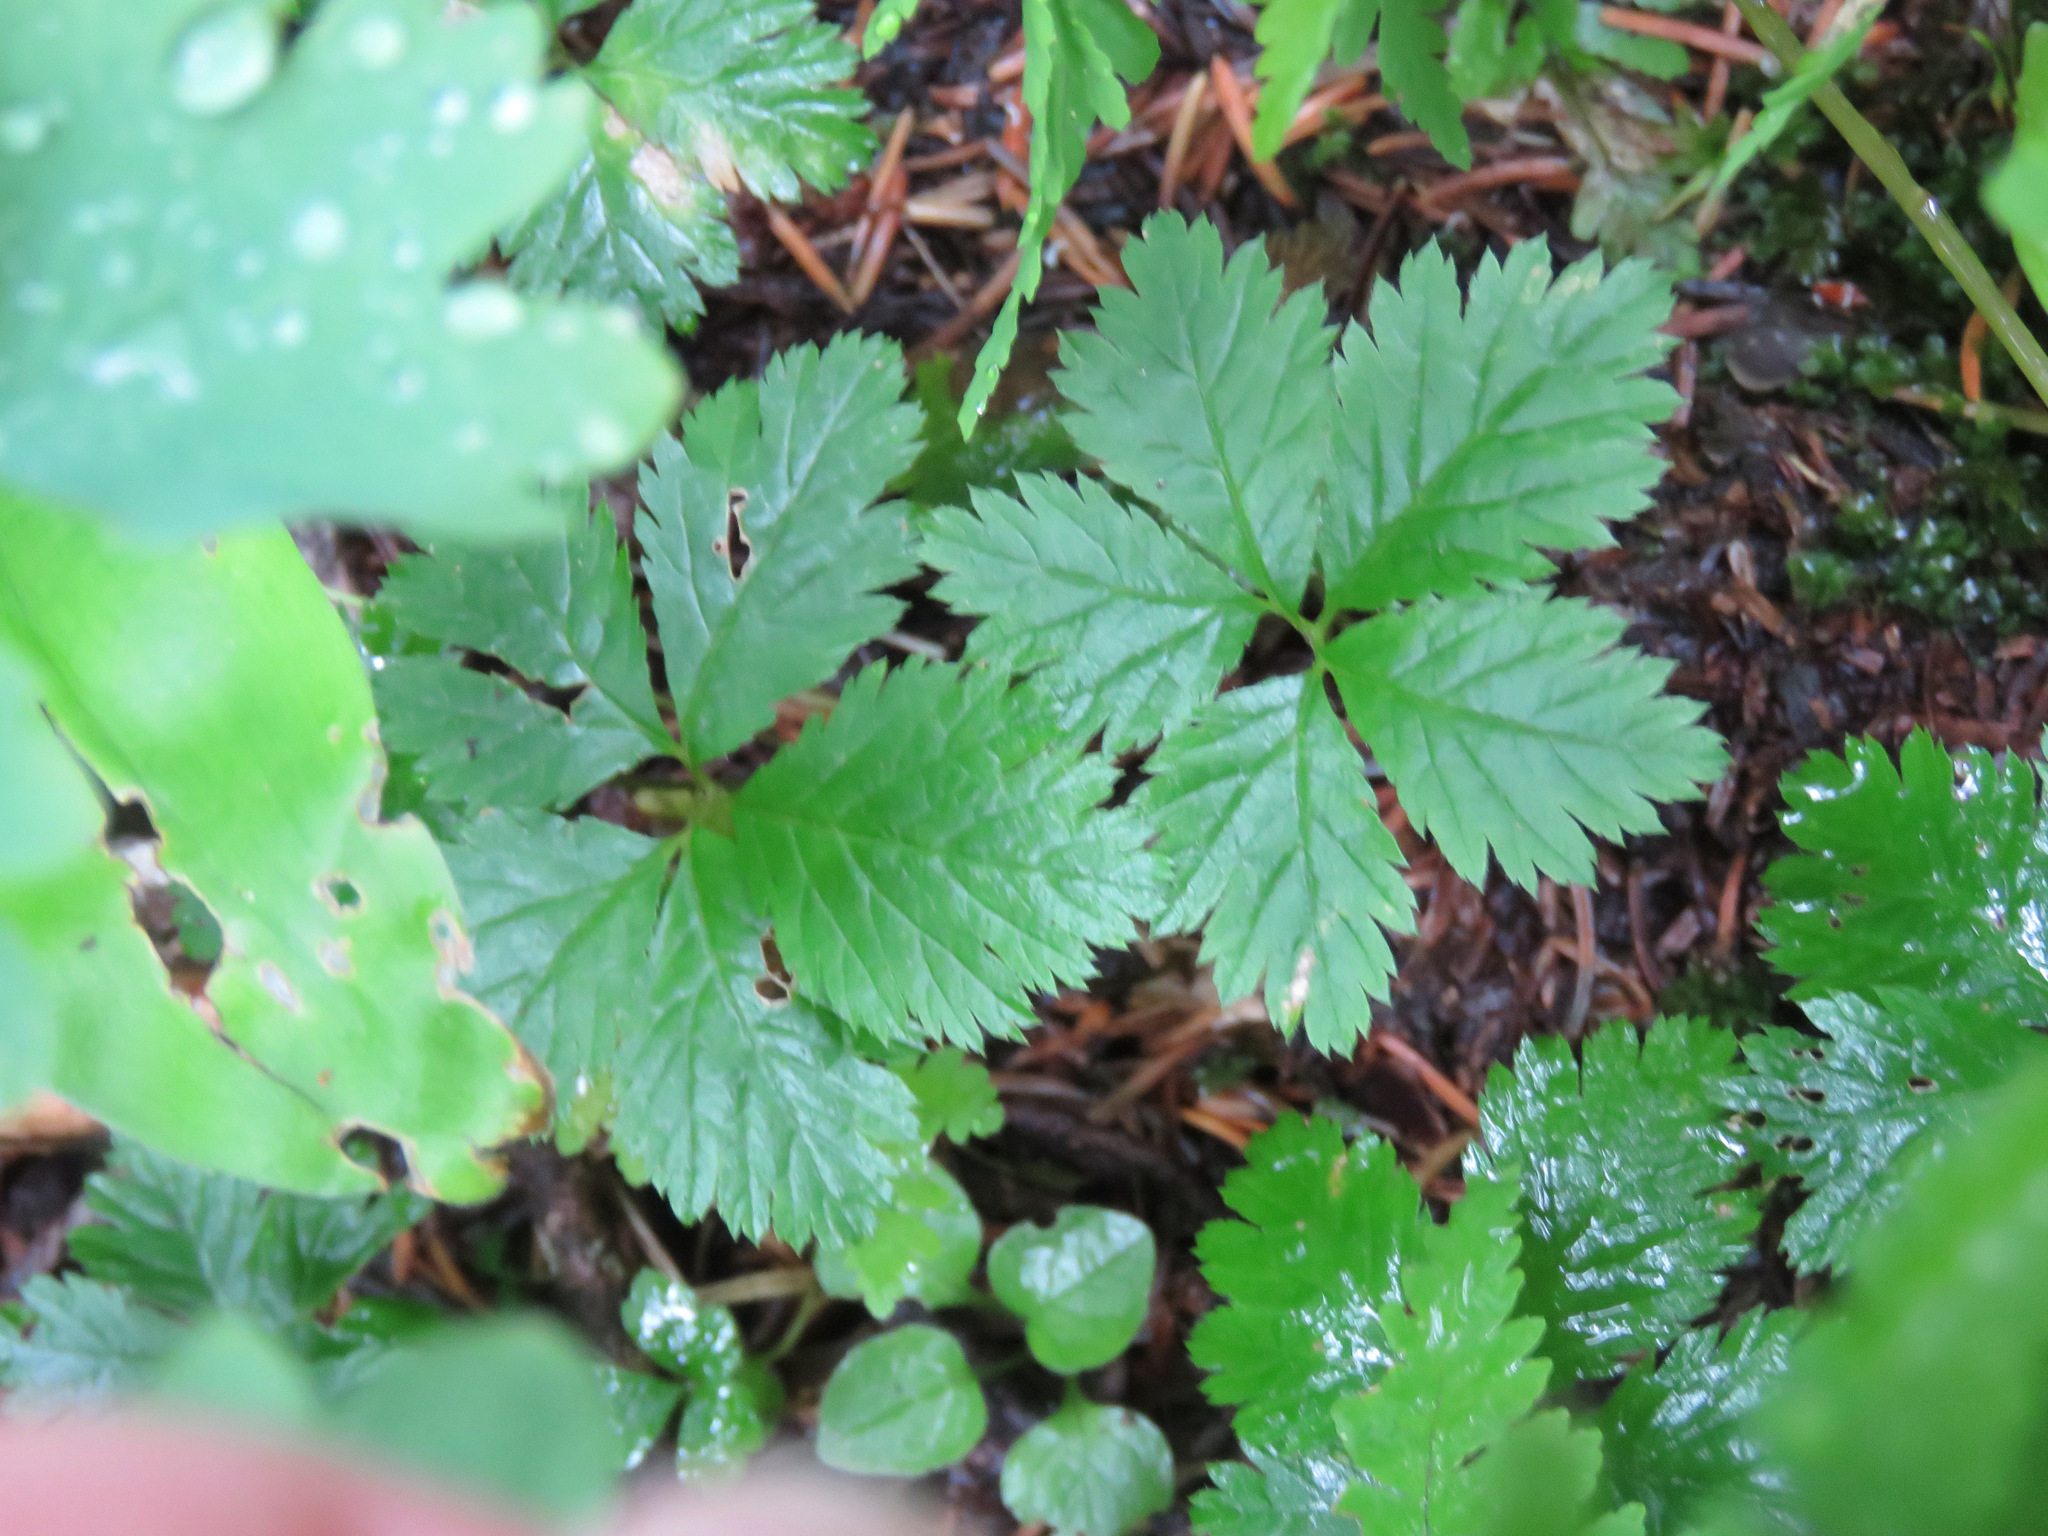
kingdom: Plantae
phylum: Tracheophyta
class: Magnoliopsida
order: Rosales
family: Rosaceae
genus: Rubus
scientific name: Rubus pedatus
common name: Creeping raspberry
